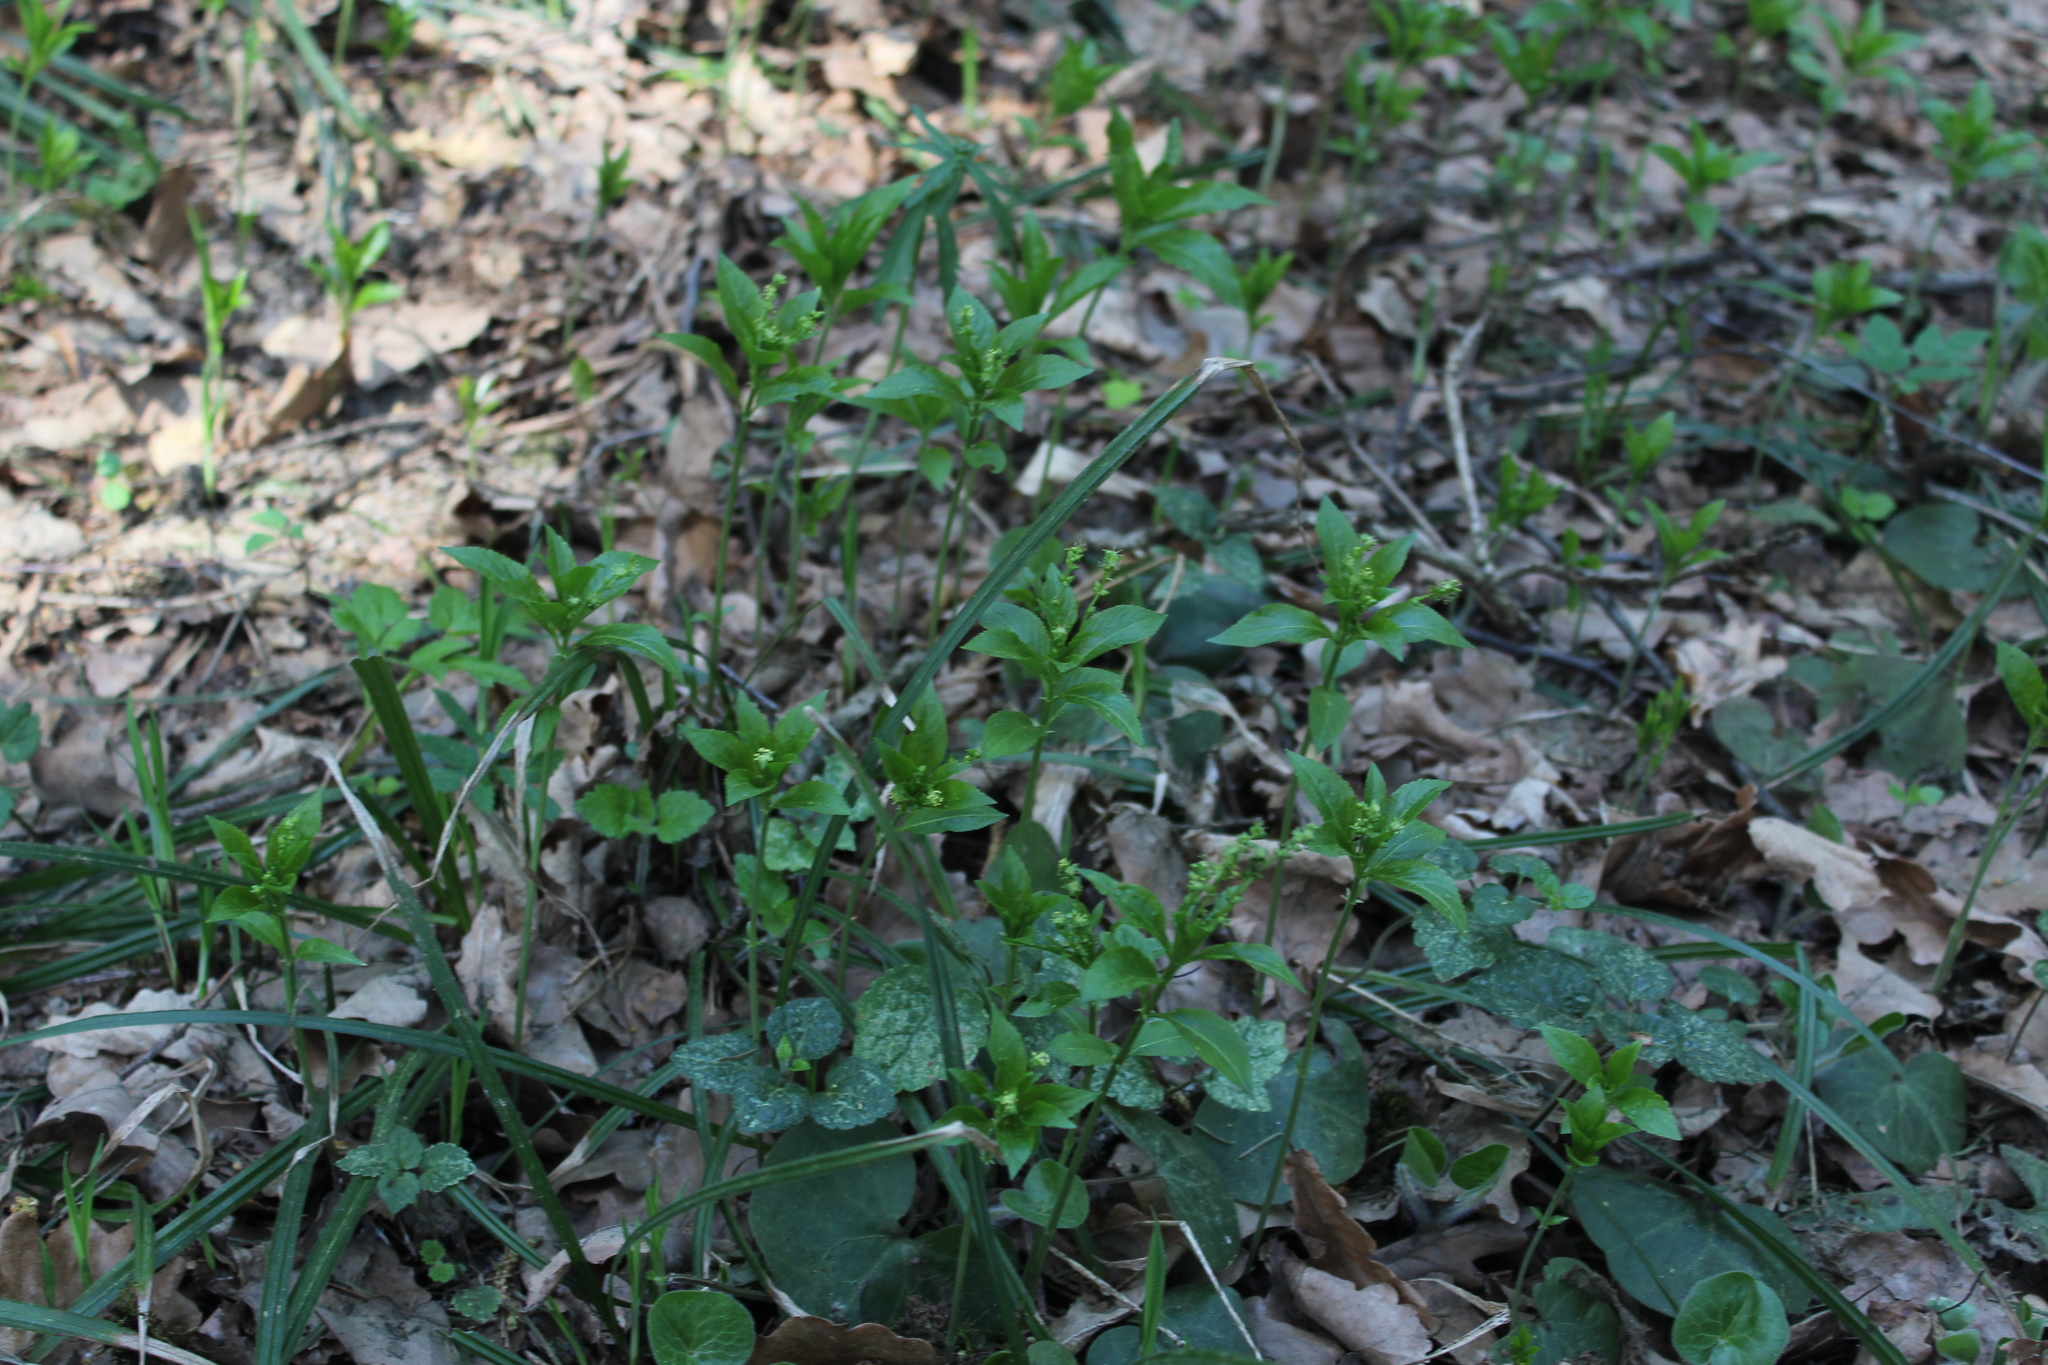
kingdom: Plantae
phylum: Tracheophyta
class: Magnoliopsida
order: Malpighiales
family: Euphorbiaceae
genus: Mercurialis
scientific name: Mercurialis perennis
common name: Dog mercury
